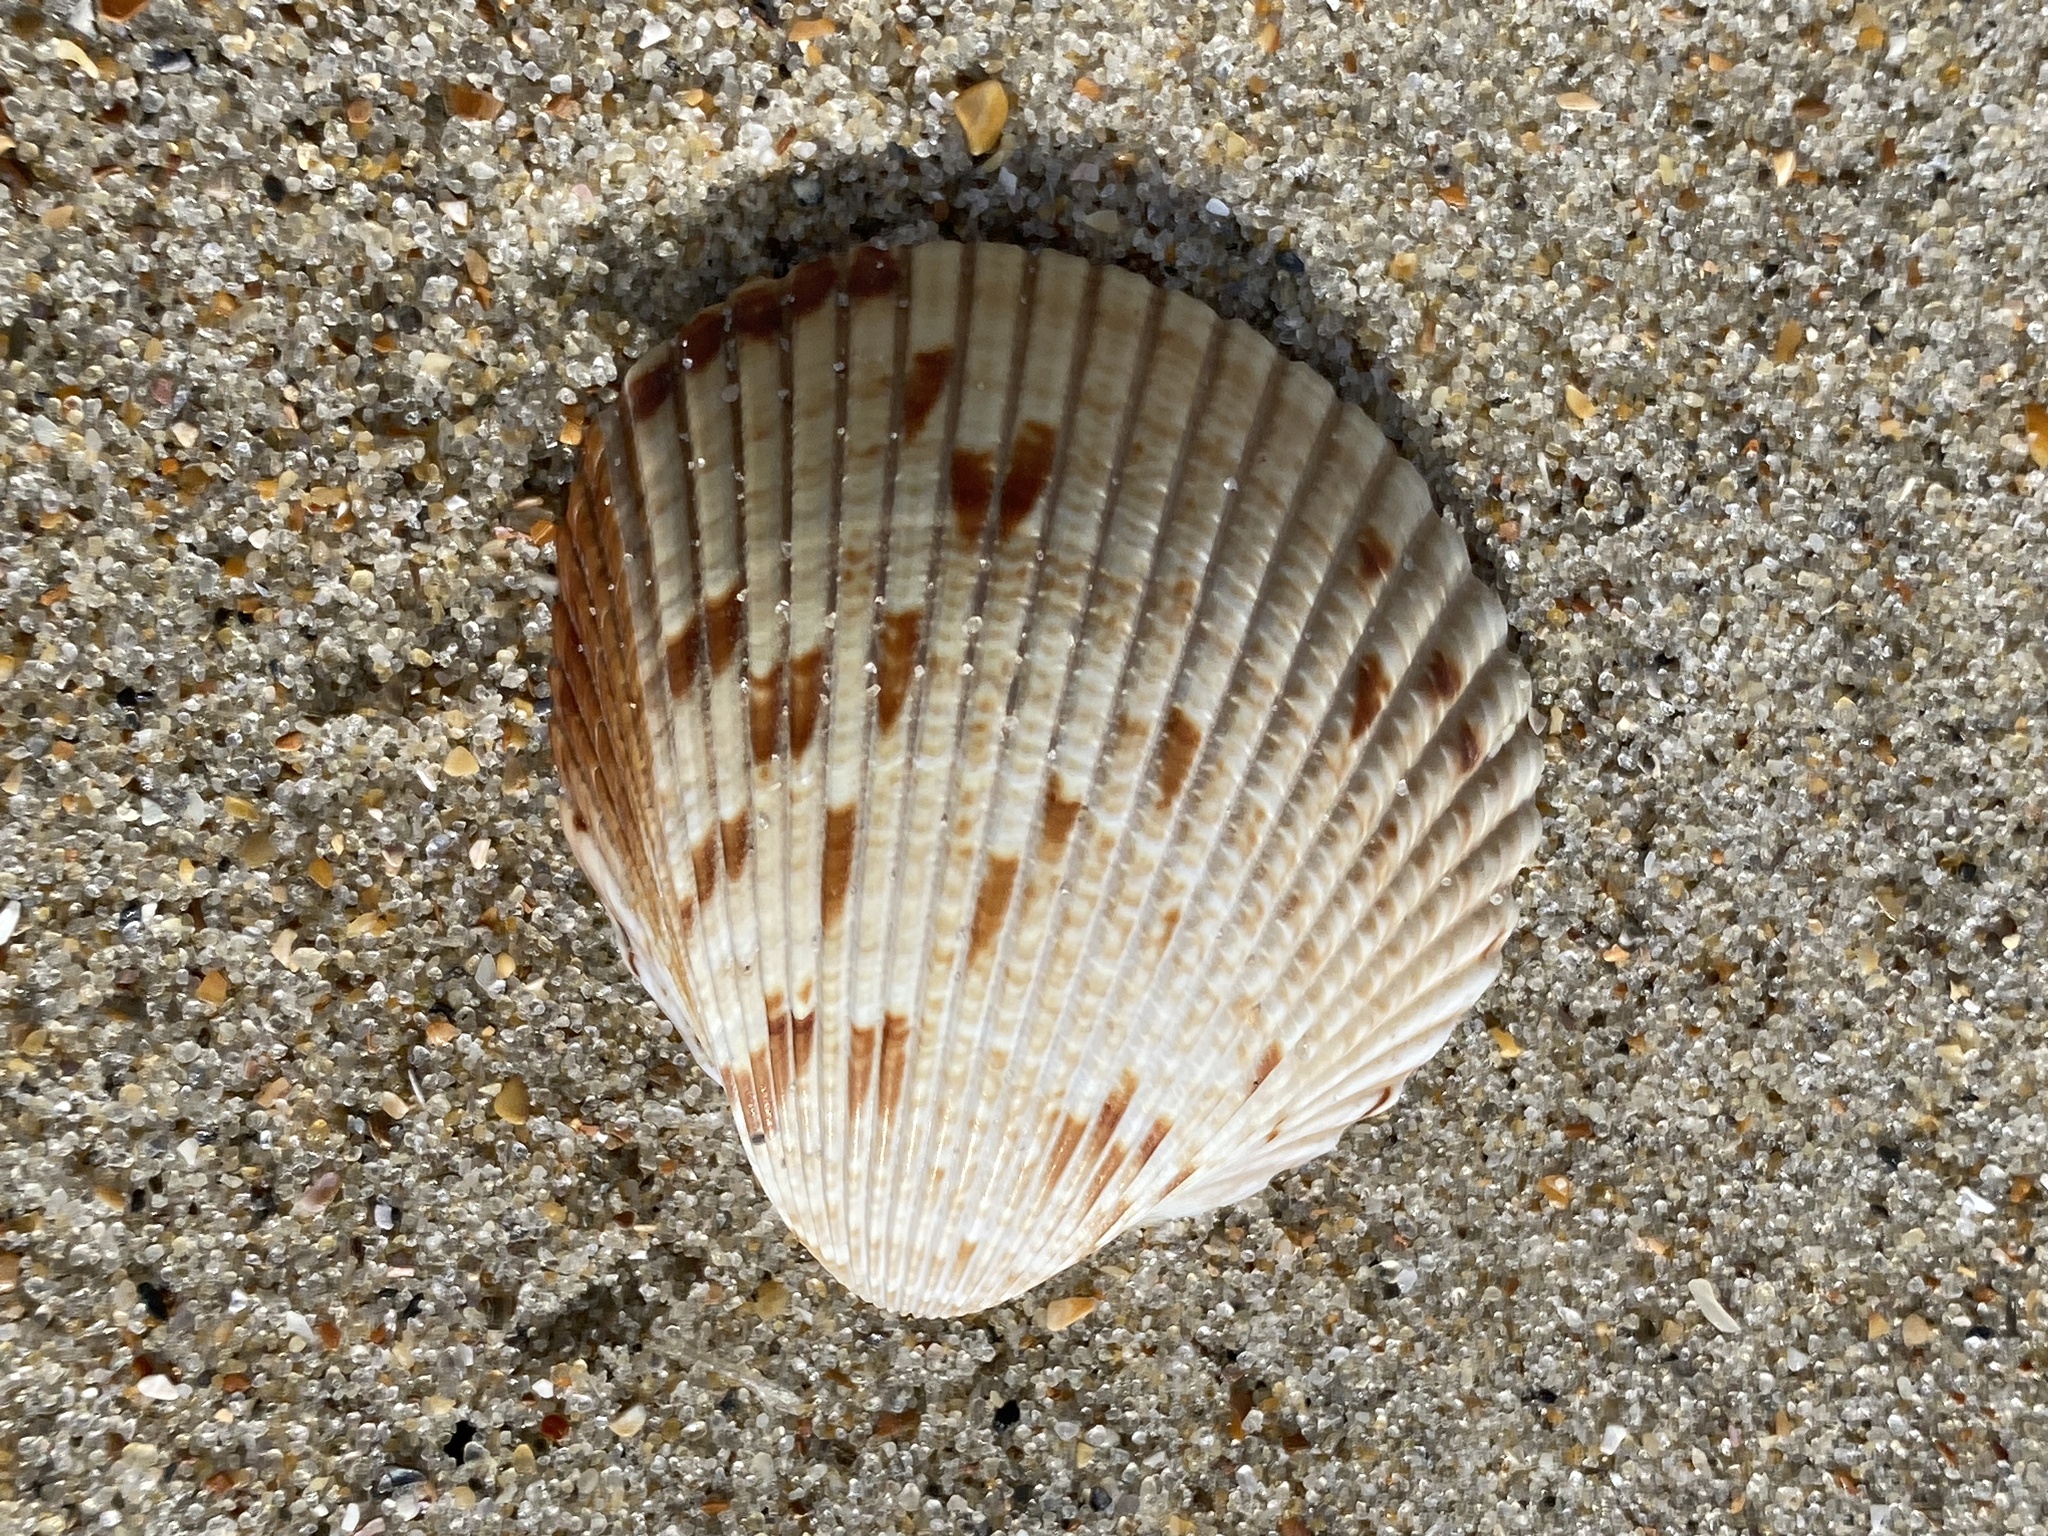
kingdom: Animalia
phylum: Mollusca
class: Bivalvia
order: Cardiida
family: Cardiidae
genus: Dinocardium
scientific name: Dinocardium robustum
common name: Atlantic giant cockle
